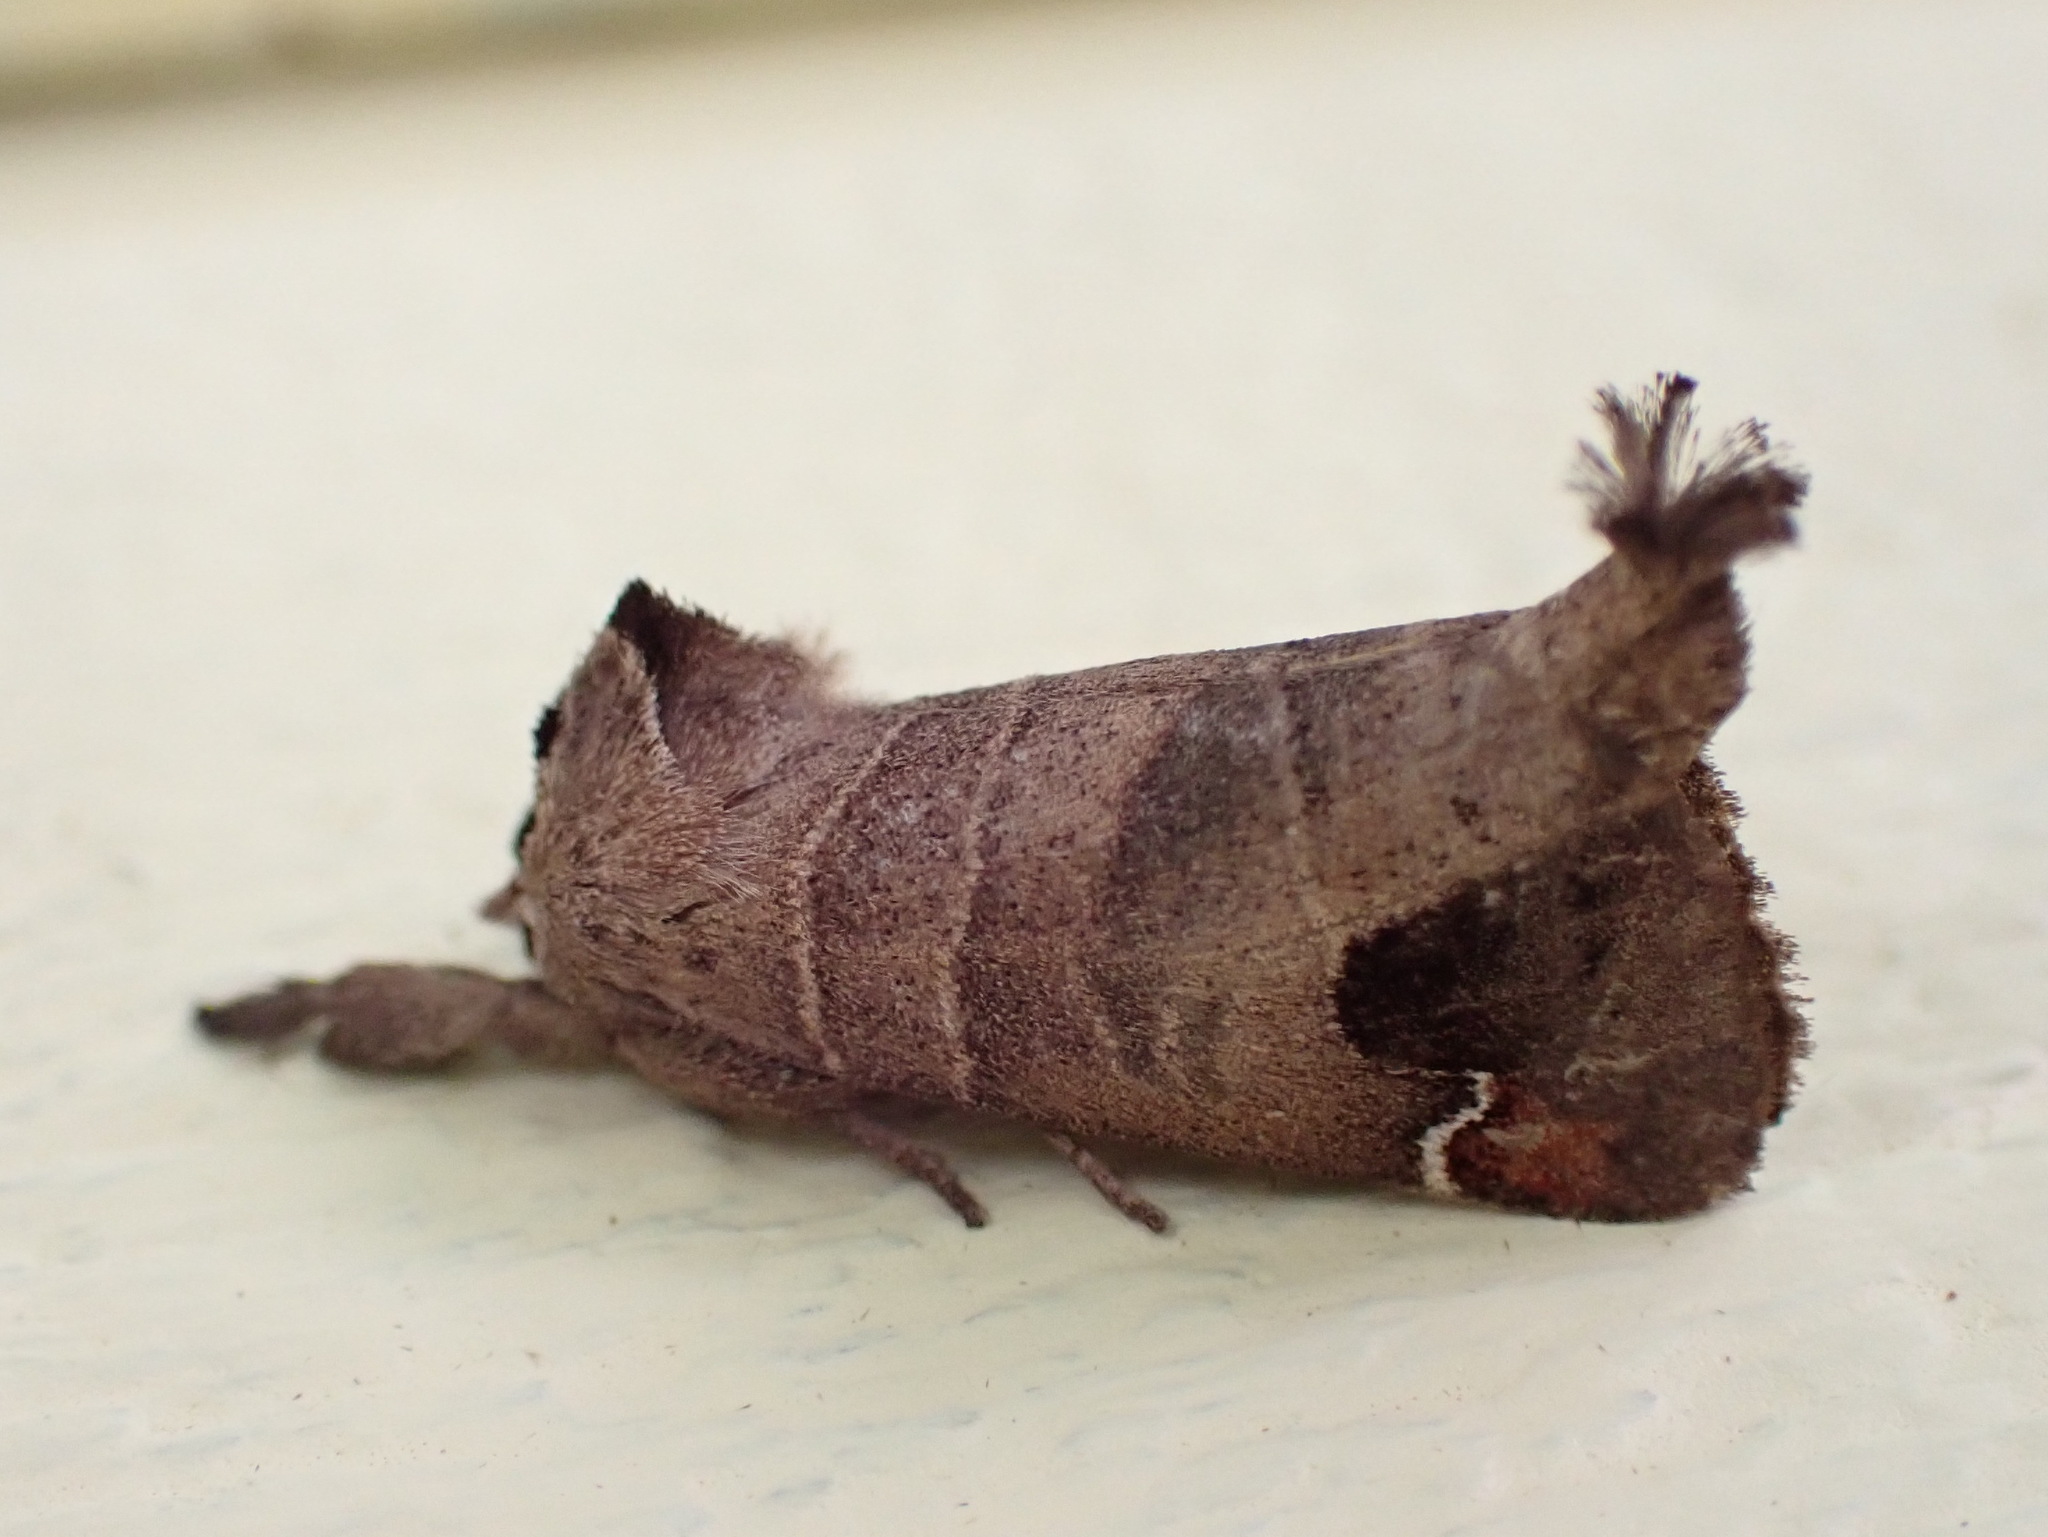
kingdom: Animalia
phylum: Arthropoda
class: Insecta
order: Lepidoptera
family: Notodontidae
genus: Clostera
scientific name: Clostera albosigma
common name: Sigmoid prominent
